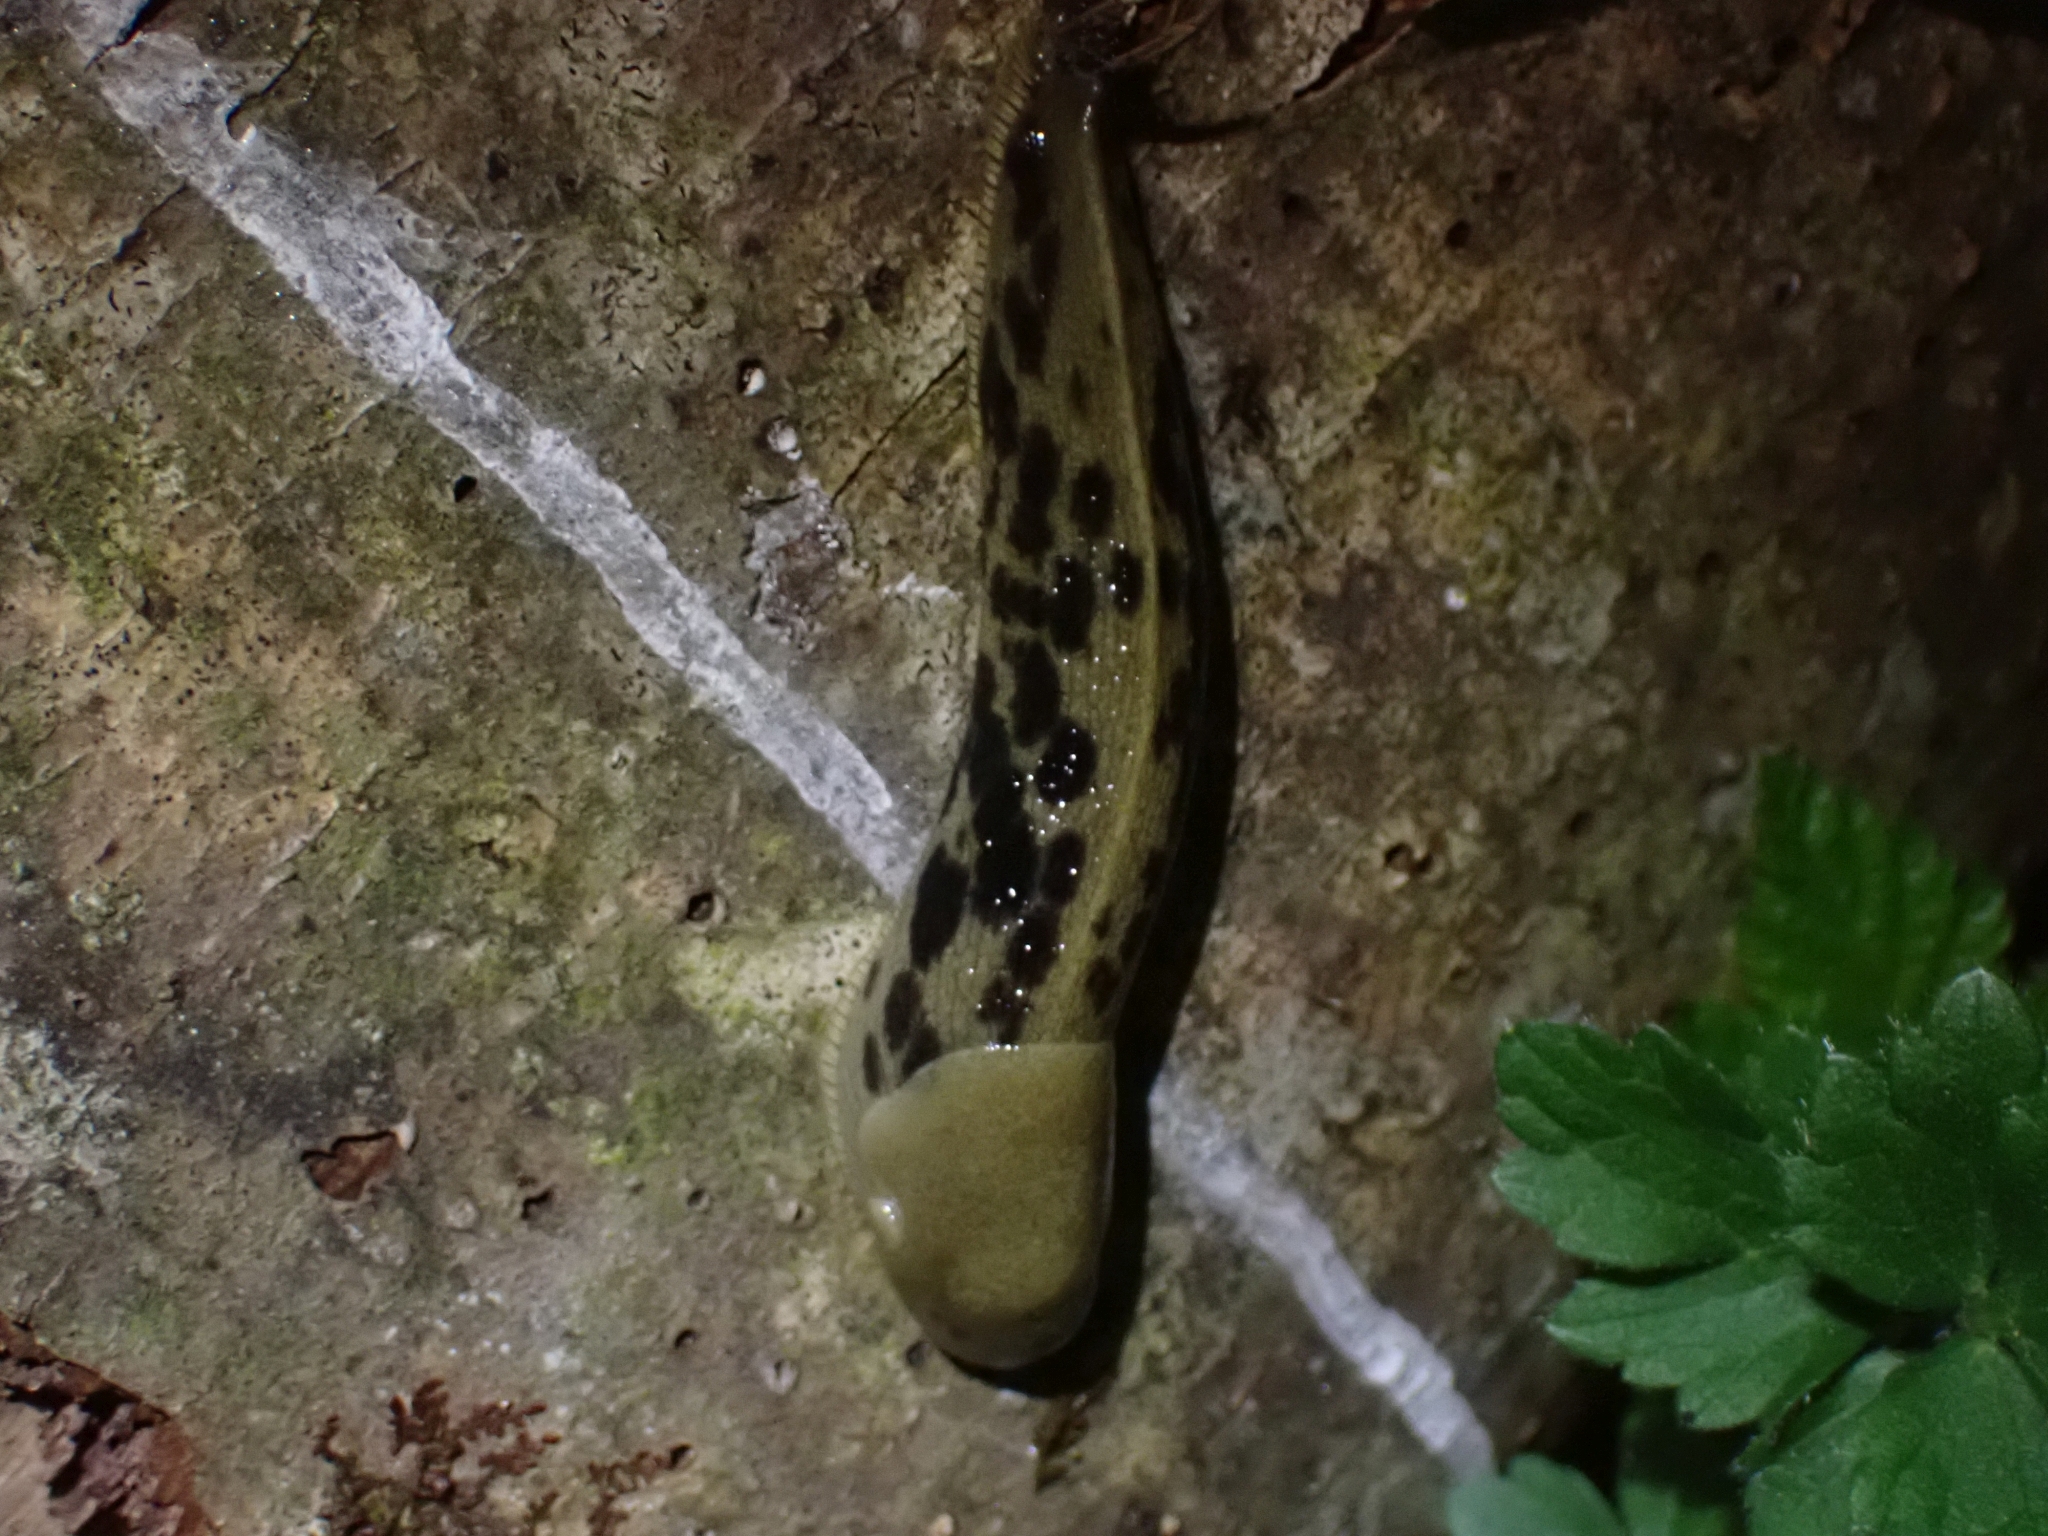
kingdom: Animalia
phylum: Mollusca
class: Gastropoda
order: Stylommatophora
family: Ariolimacidae
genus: Ariolimax
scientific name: Ariolimax columbianus
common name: Pacific banana slug
